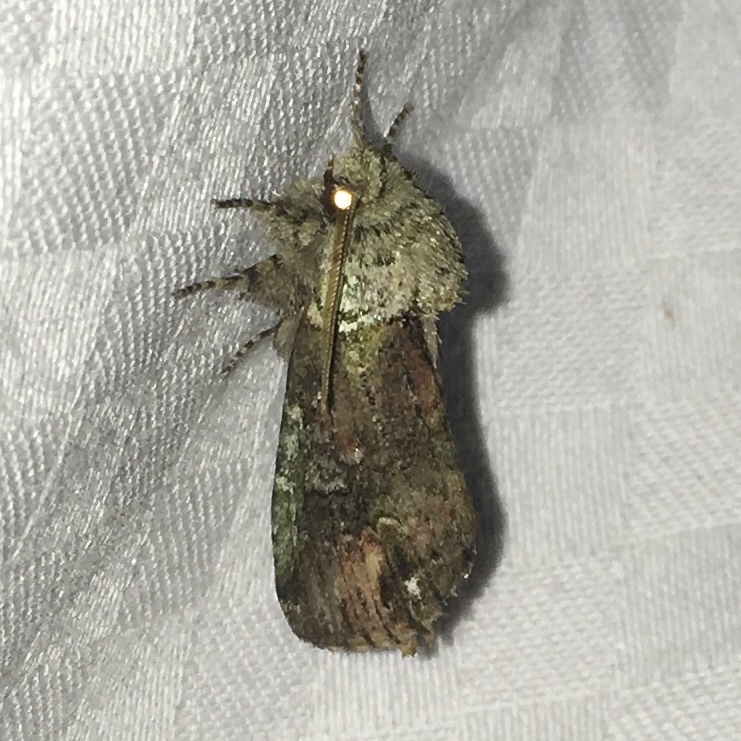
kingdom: Animalia
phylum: Arthropoda
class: Insecta
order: Lepidoptera
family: Notodontidae
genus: Schizura
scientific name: Schizura
